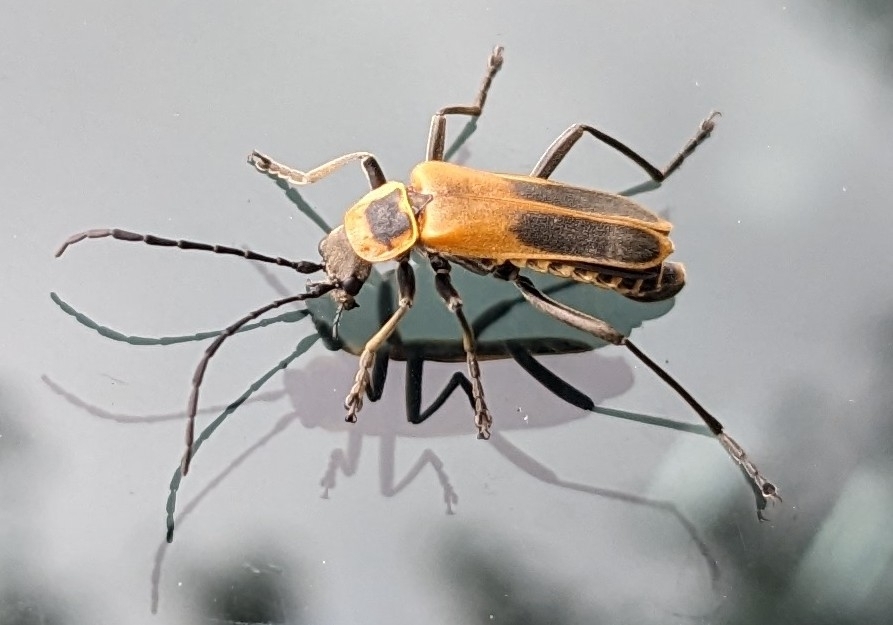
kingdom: Animalia
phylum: Arthropoda
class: Insecta
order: Coleoptera
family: Cantharidae
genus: Chauliognathus
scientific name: Chauliognathus pensylvanicus
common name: Goldenrod soldier beetle
